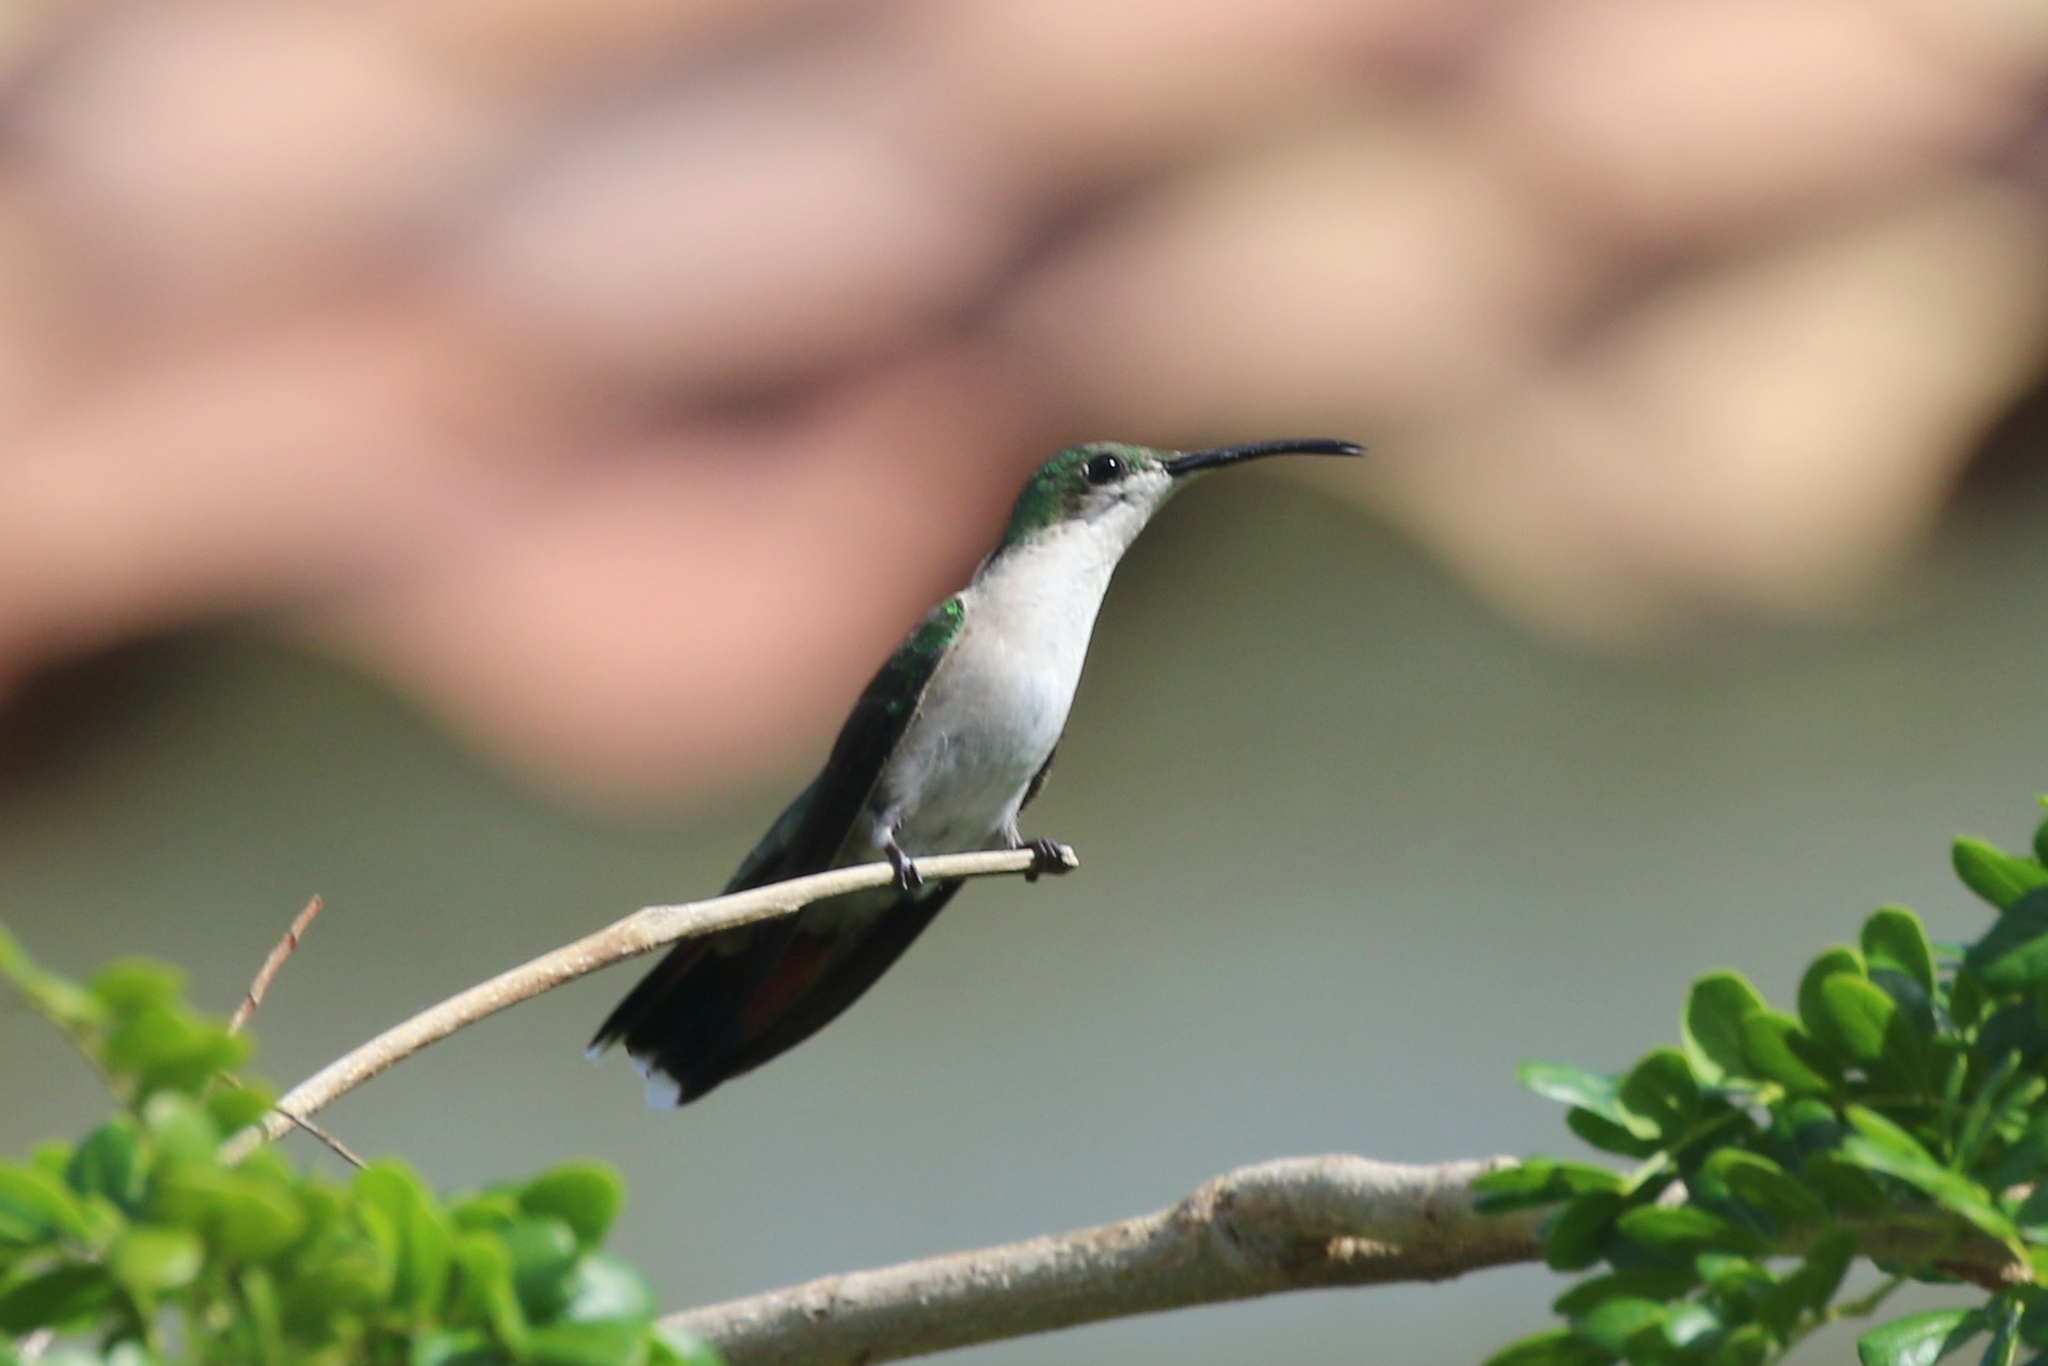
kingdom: Animalia
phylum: Chordata
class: Aves
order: Apodiformes
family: Trochilidae
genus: Anthracothorax
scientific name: Anthracothorax dominicus
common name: Antillean mango
